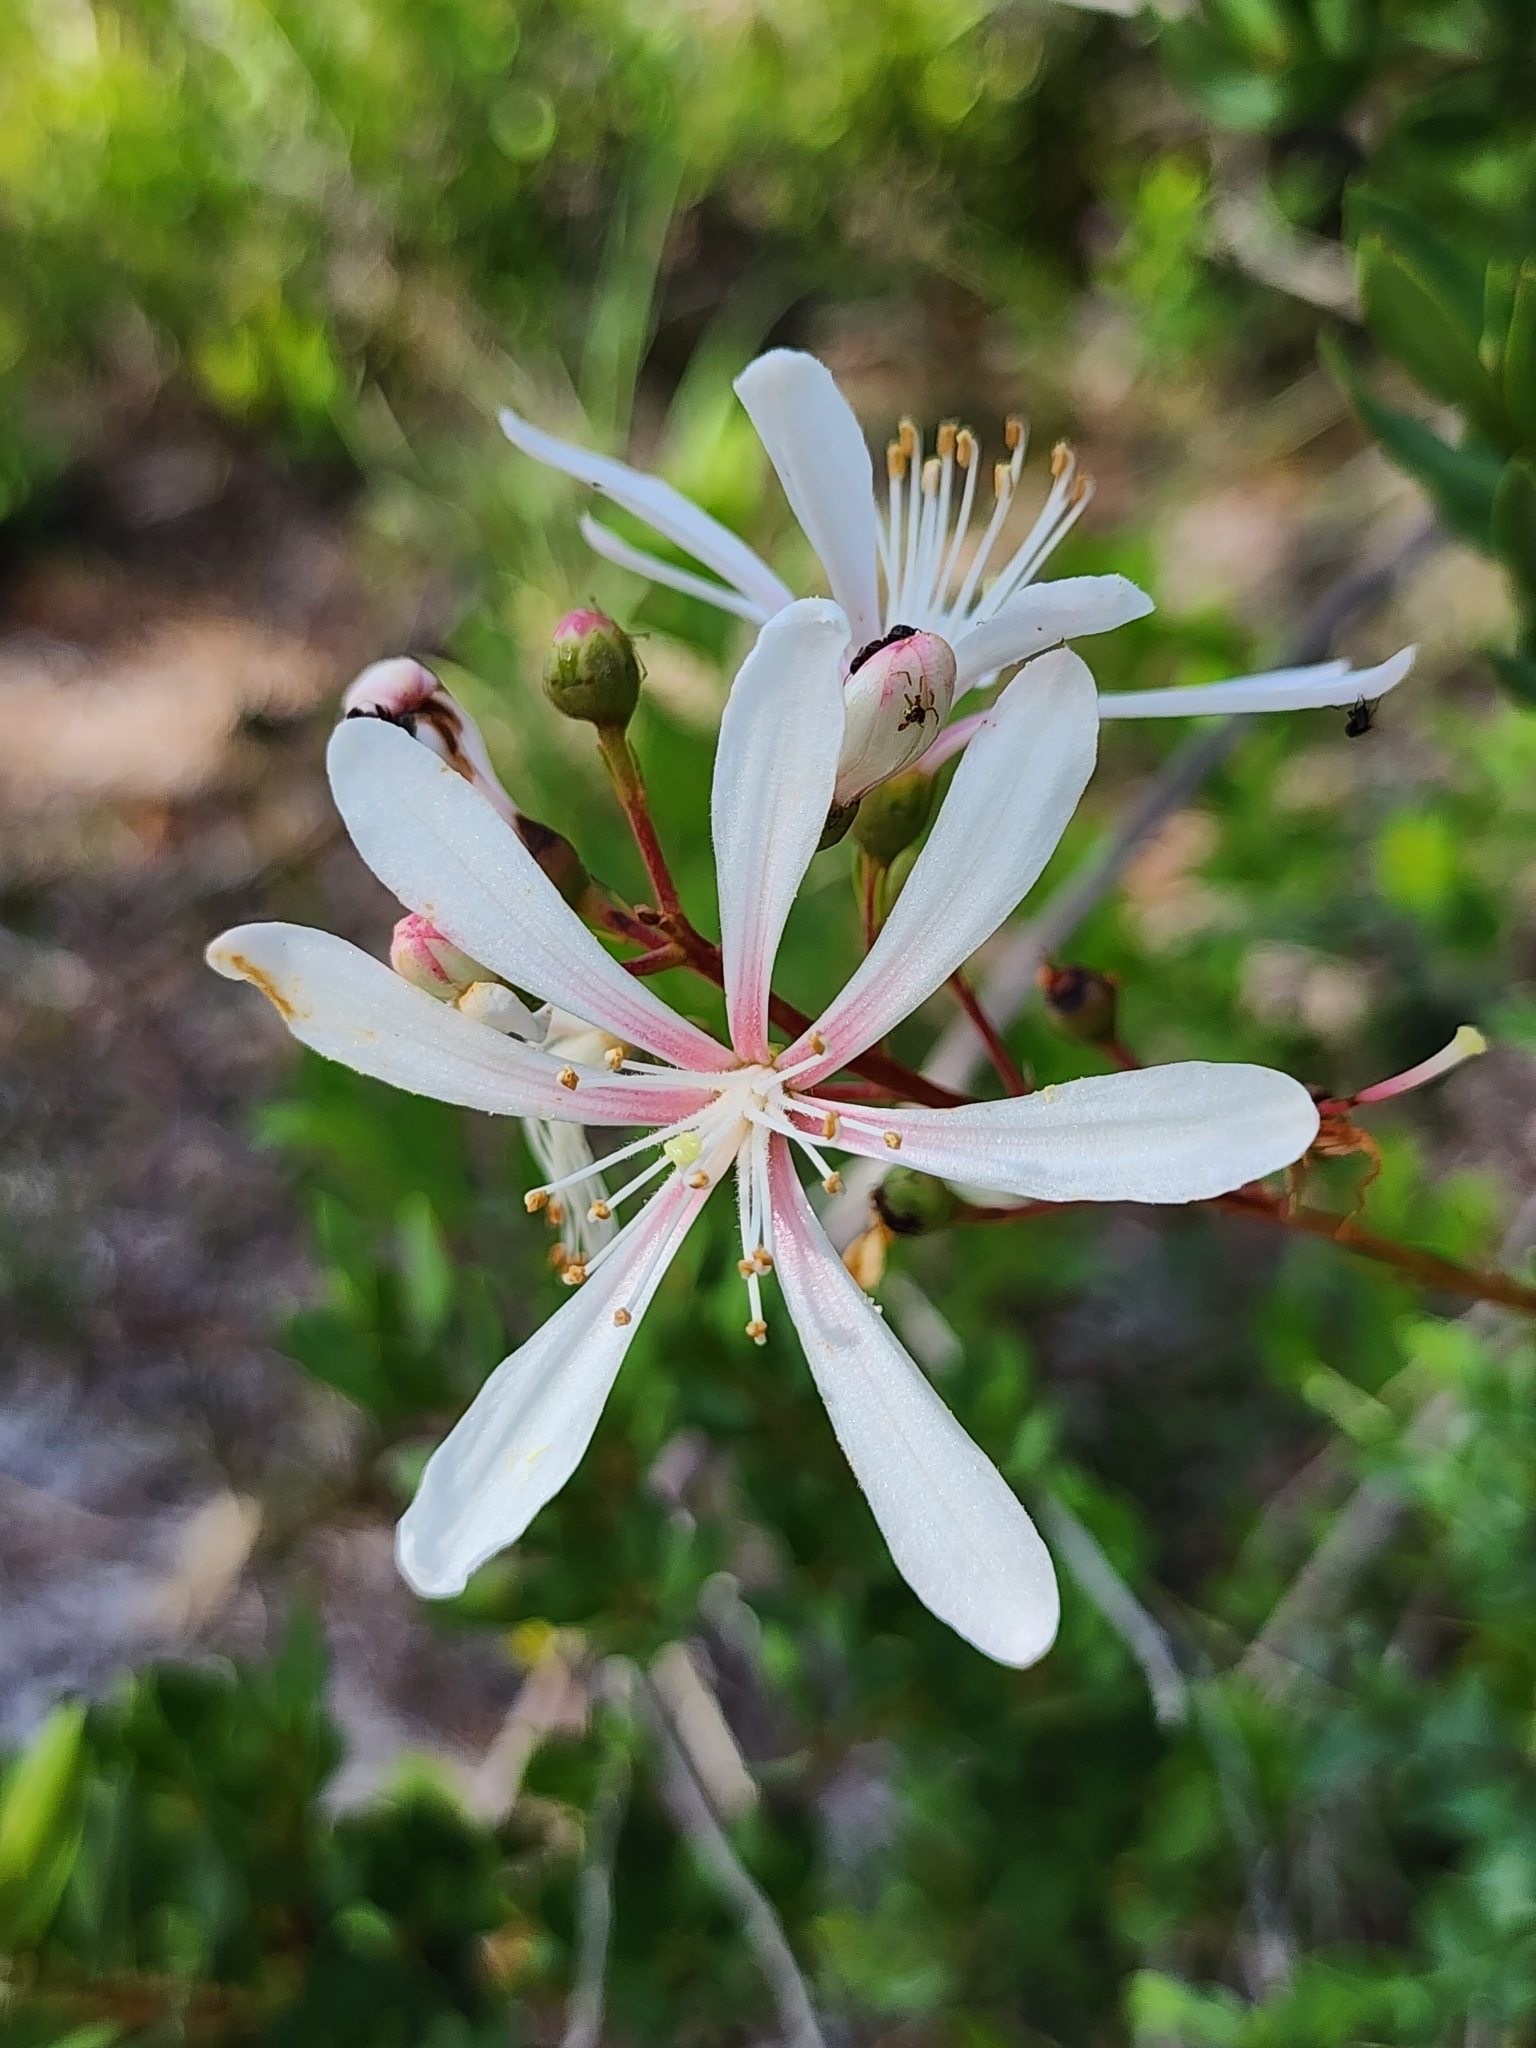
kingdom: Plantae
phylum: Tracheophyta
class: Magnoliopsida
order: Ericales
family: Ericaceae
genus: Bejaria
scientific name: Bejaria racemosa
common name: Tarflower
